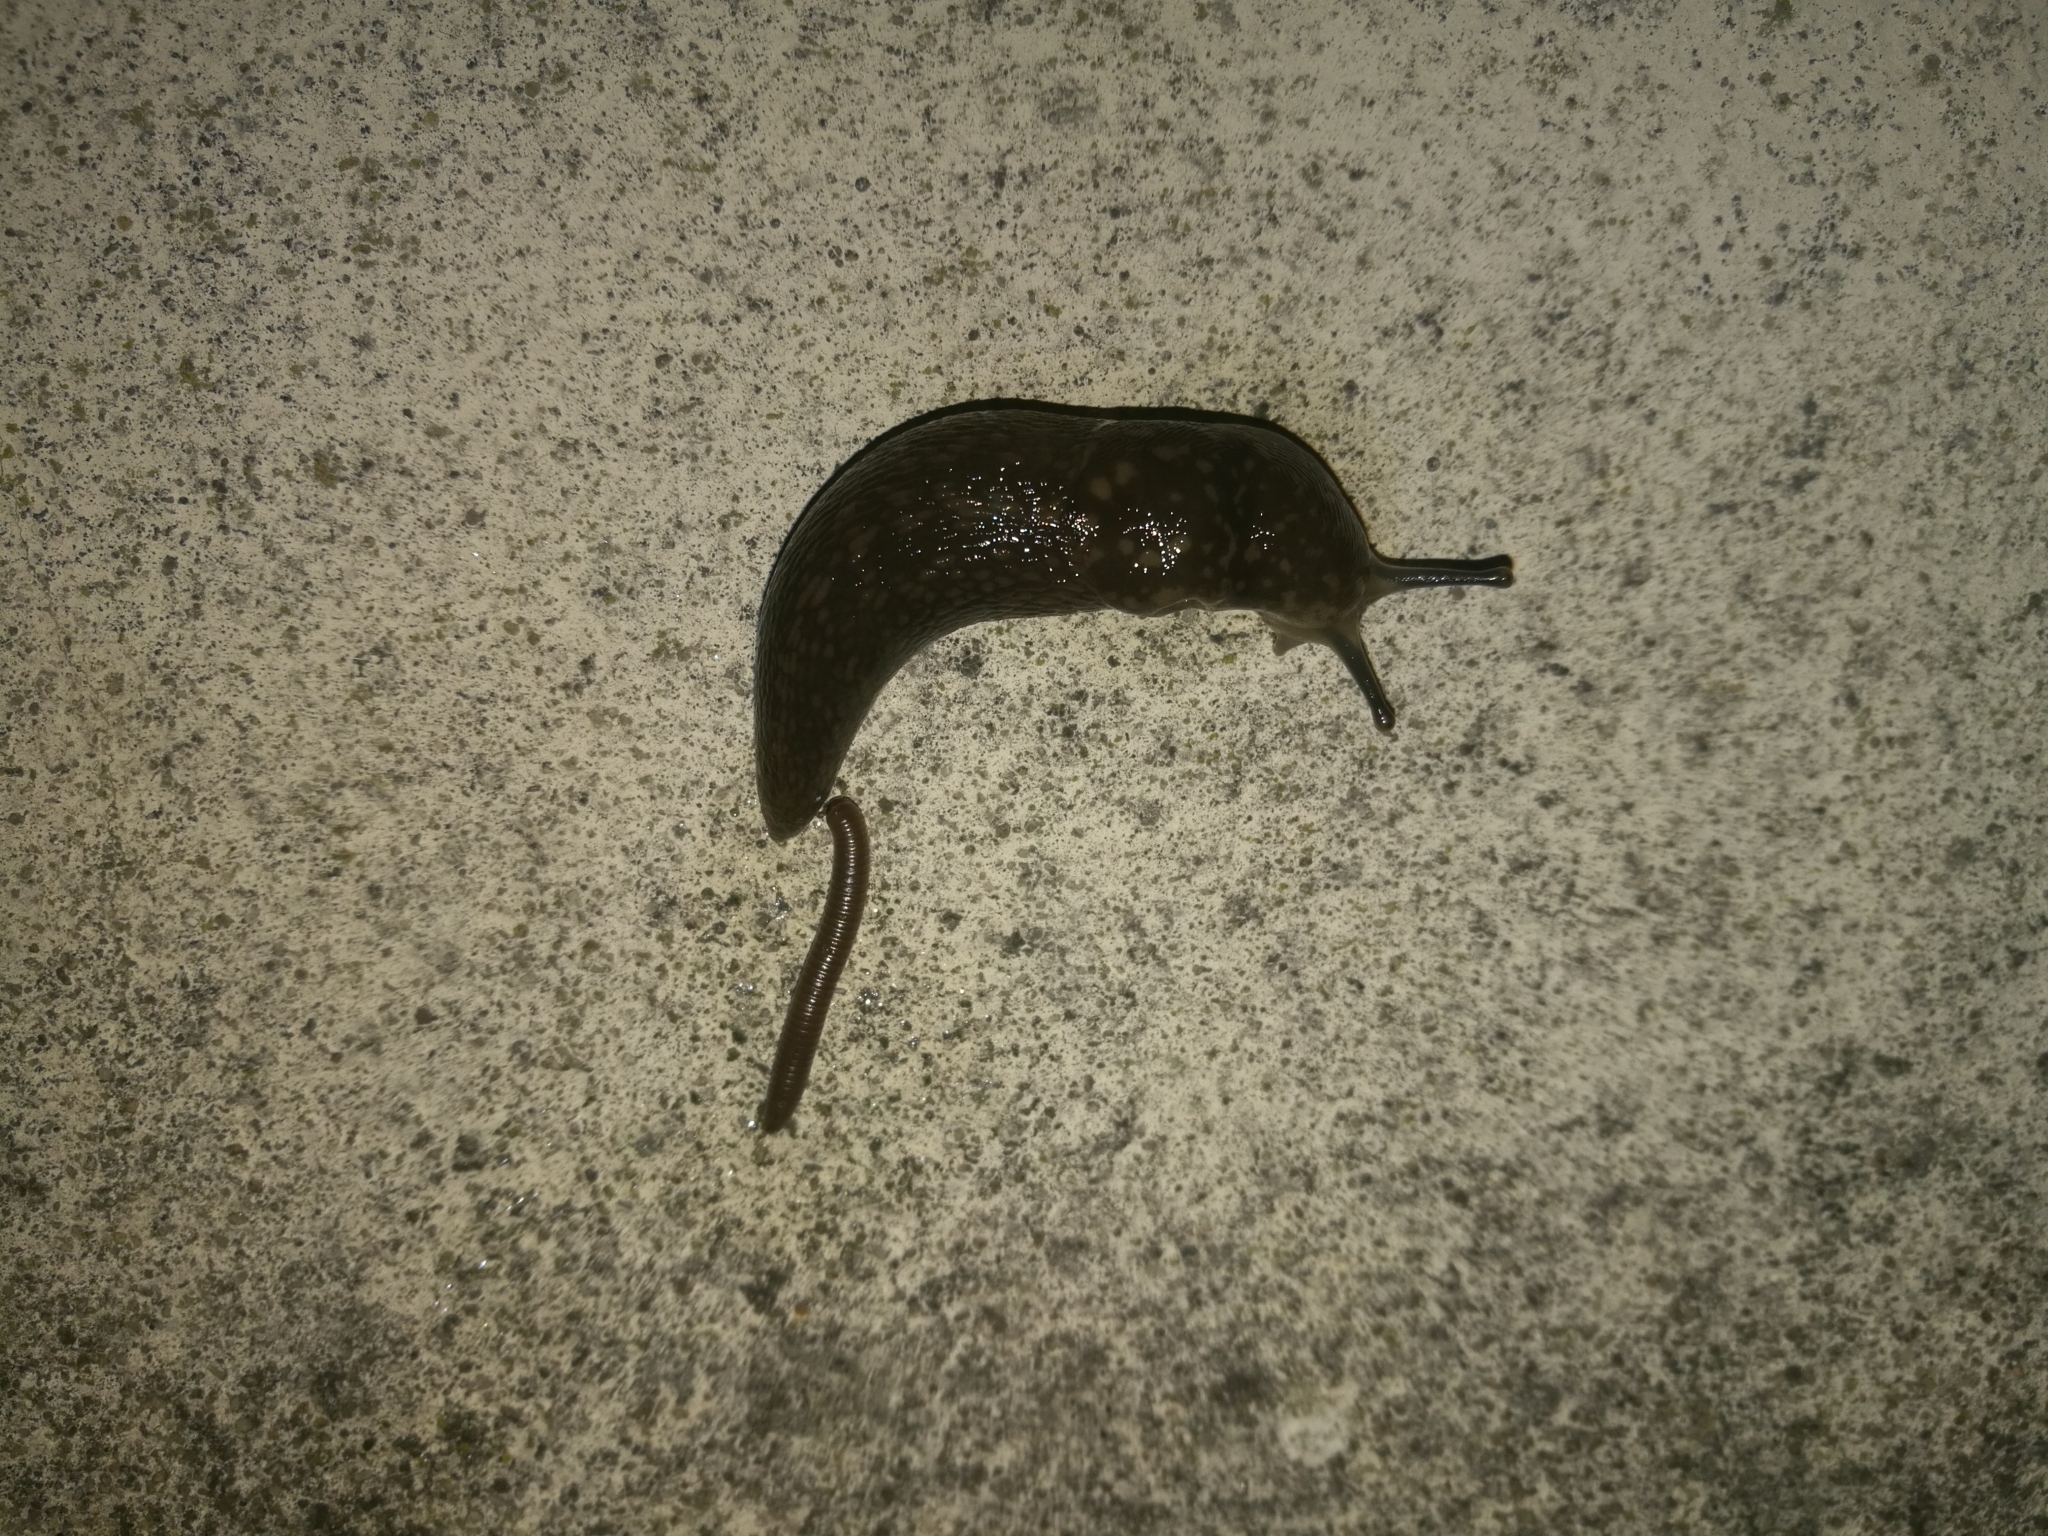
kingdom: Animalia
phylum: Mollusca
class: Gastropoda
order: Stylommatophora
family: Limacidae
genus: Limacus
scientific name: Limacus flavus
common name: Yellow gardenslug
